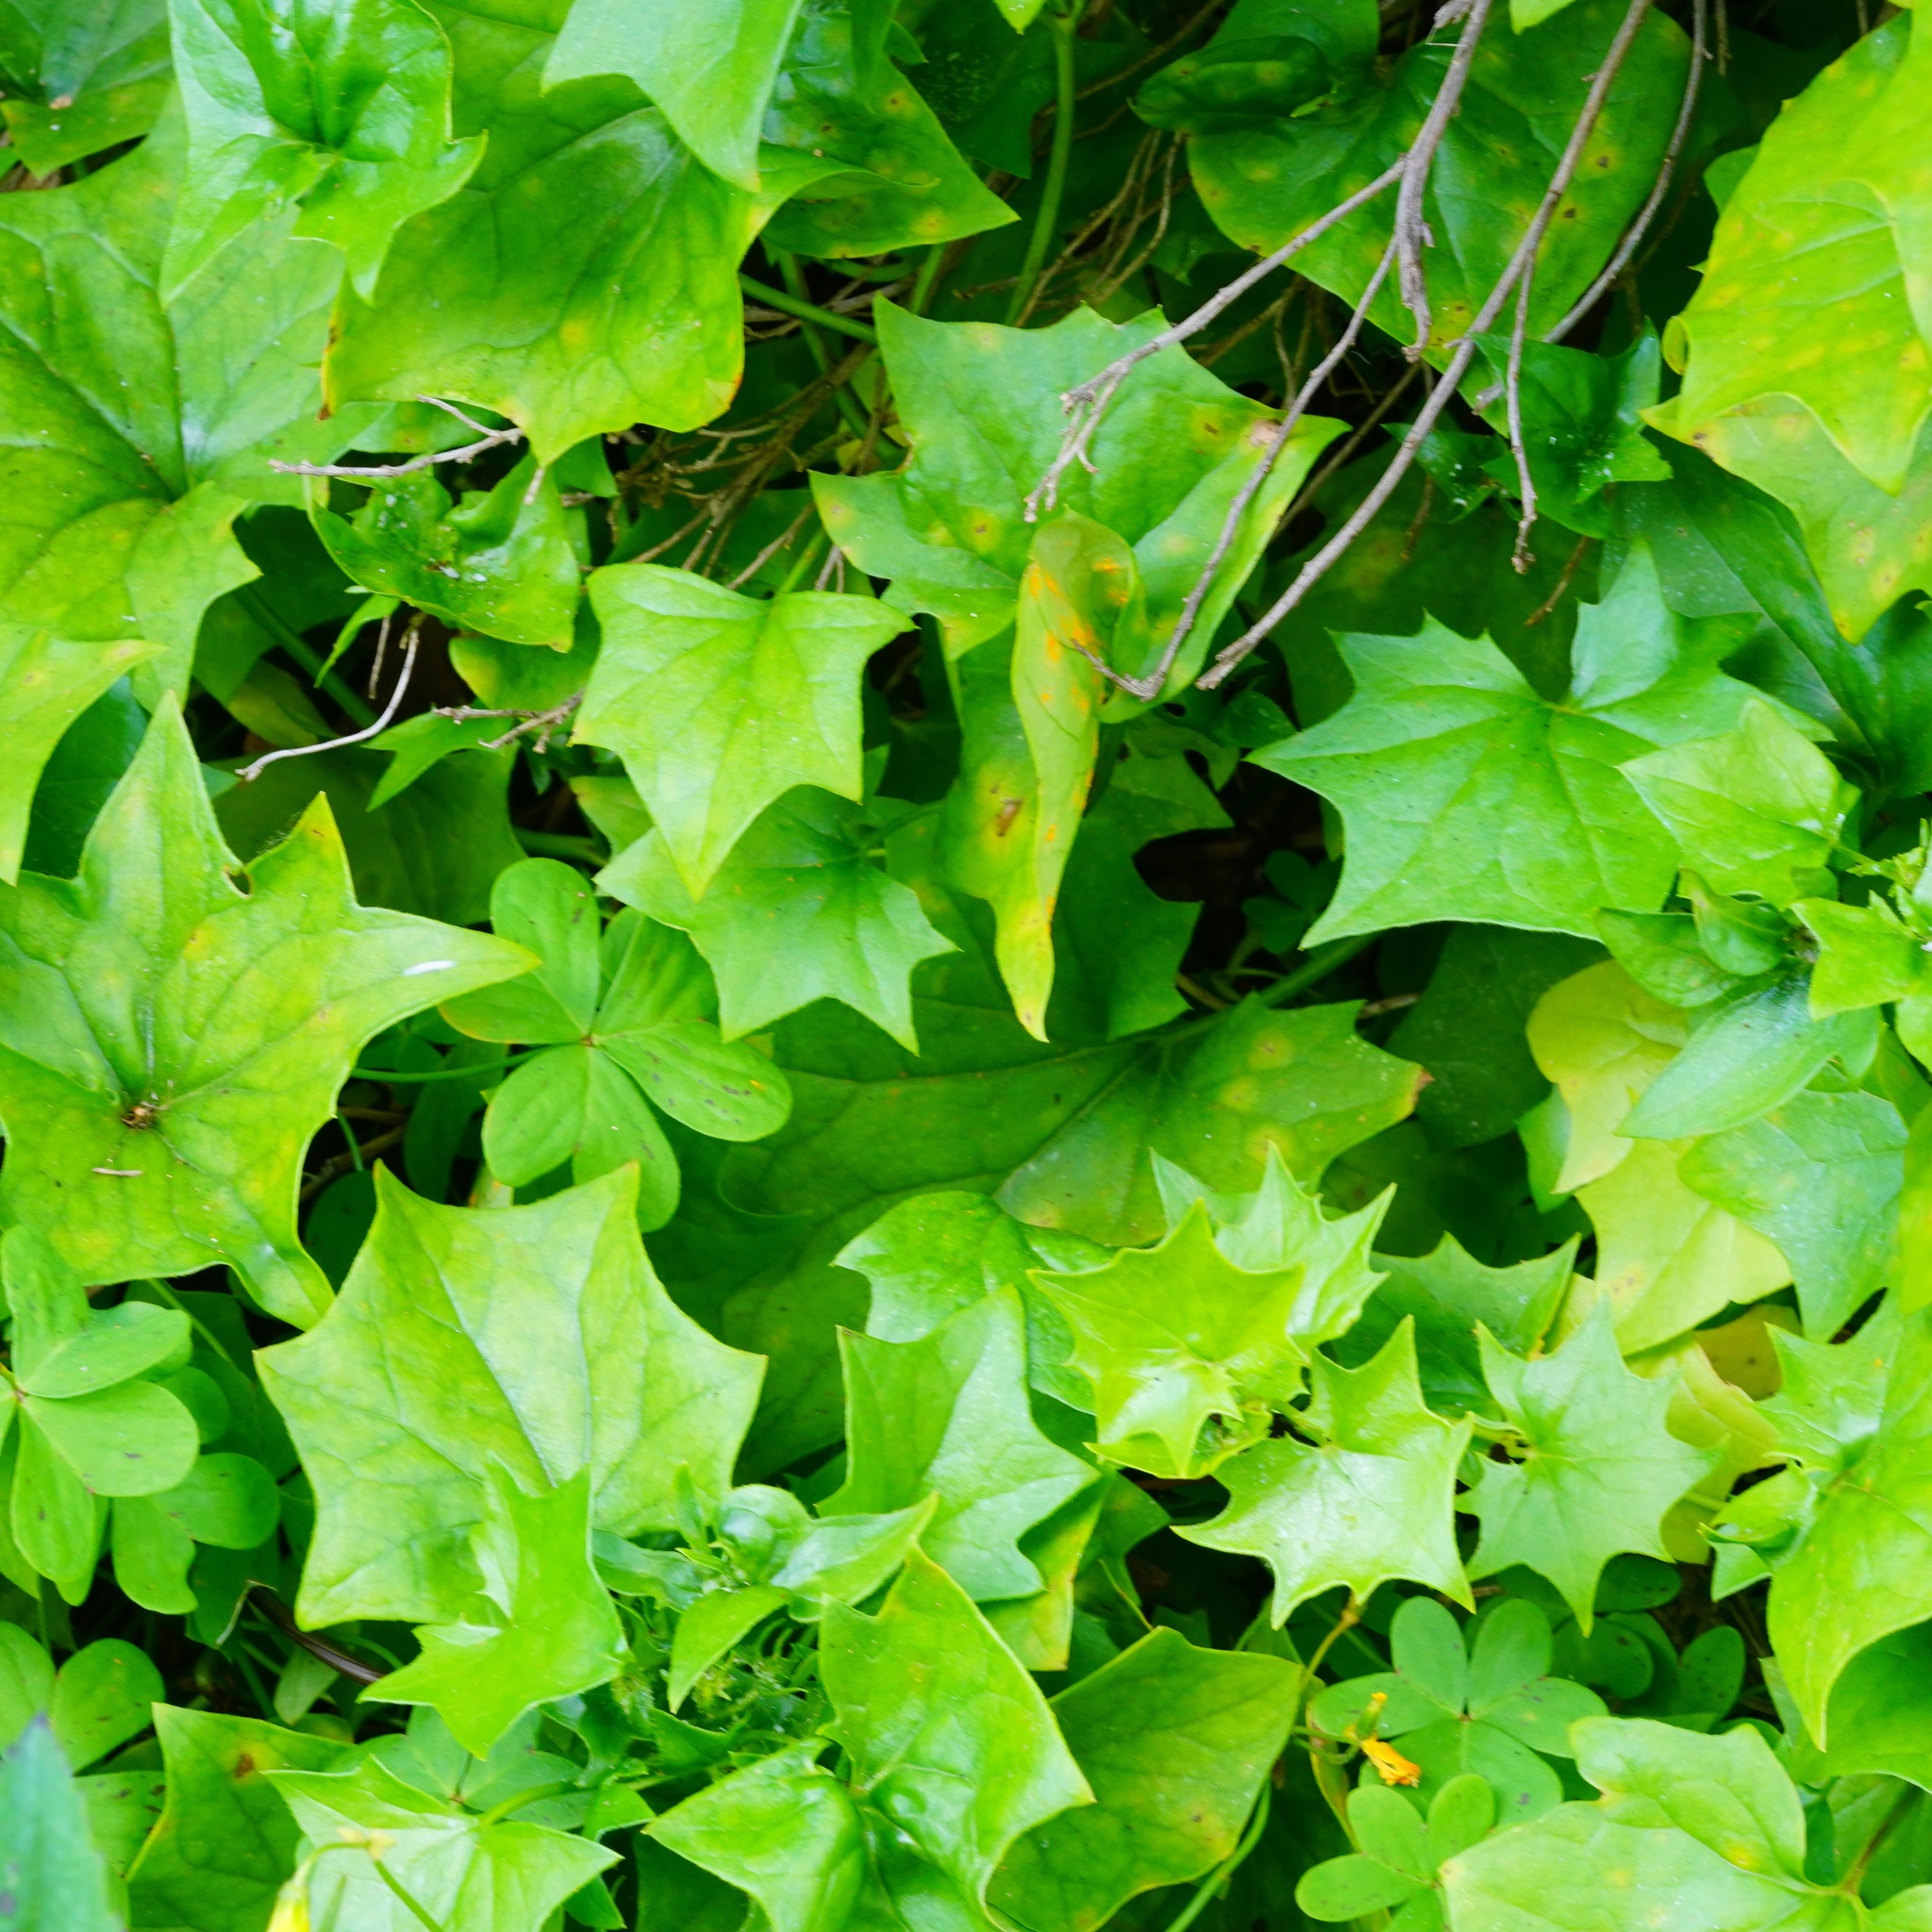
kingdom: Plantae
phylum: Tracheophyta
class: Magnoliopsida
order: Asterales
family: Asteraceae
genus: Delairea
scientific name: Delairea odorata
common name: Cape-ivy
